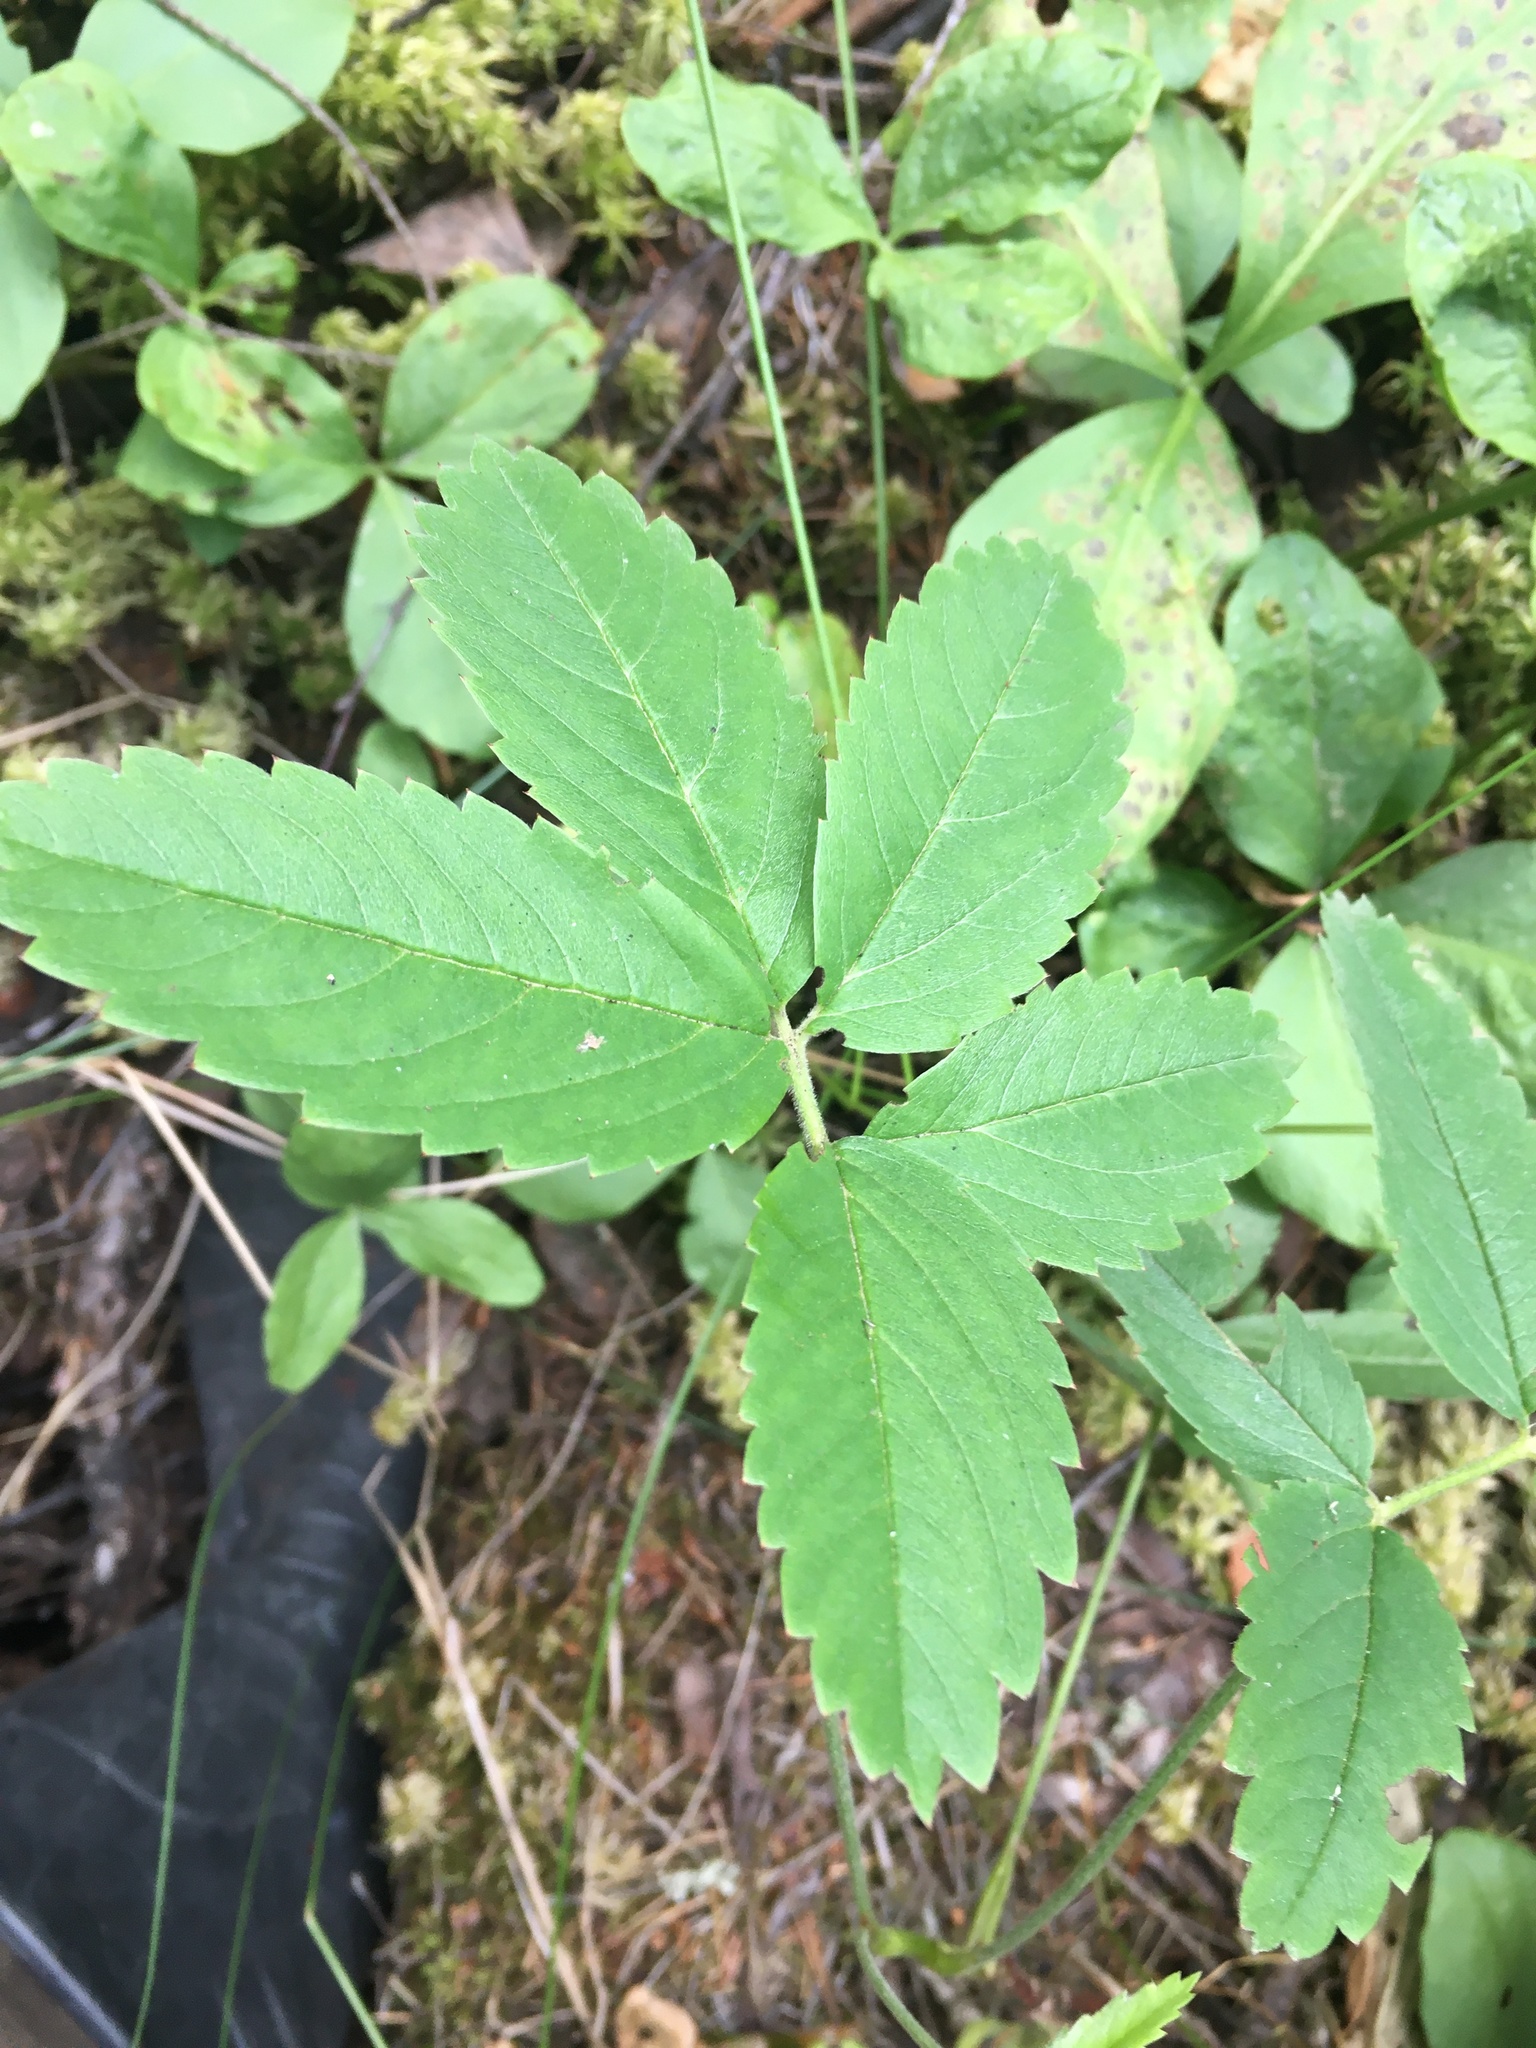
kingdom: Plantae
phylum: Tracheophyta
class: Magnoliopsida
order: Rosales
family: Rosaceae
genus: Comarum
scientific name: Comarum palustre
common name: Marsh cinquefoil
